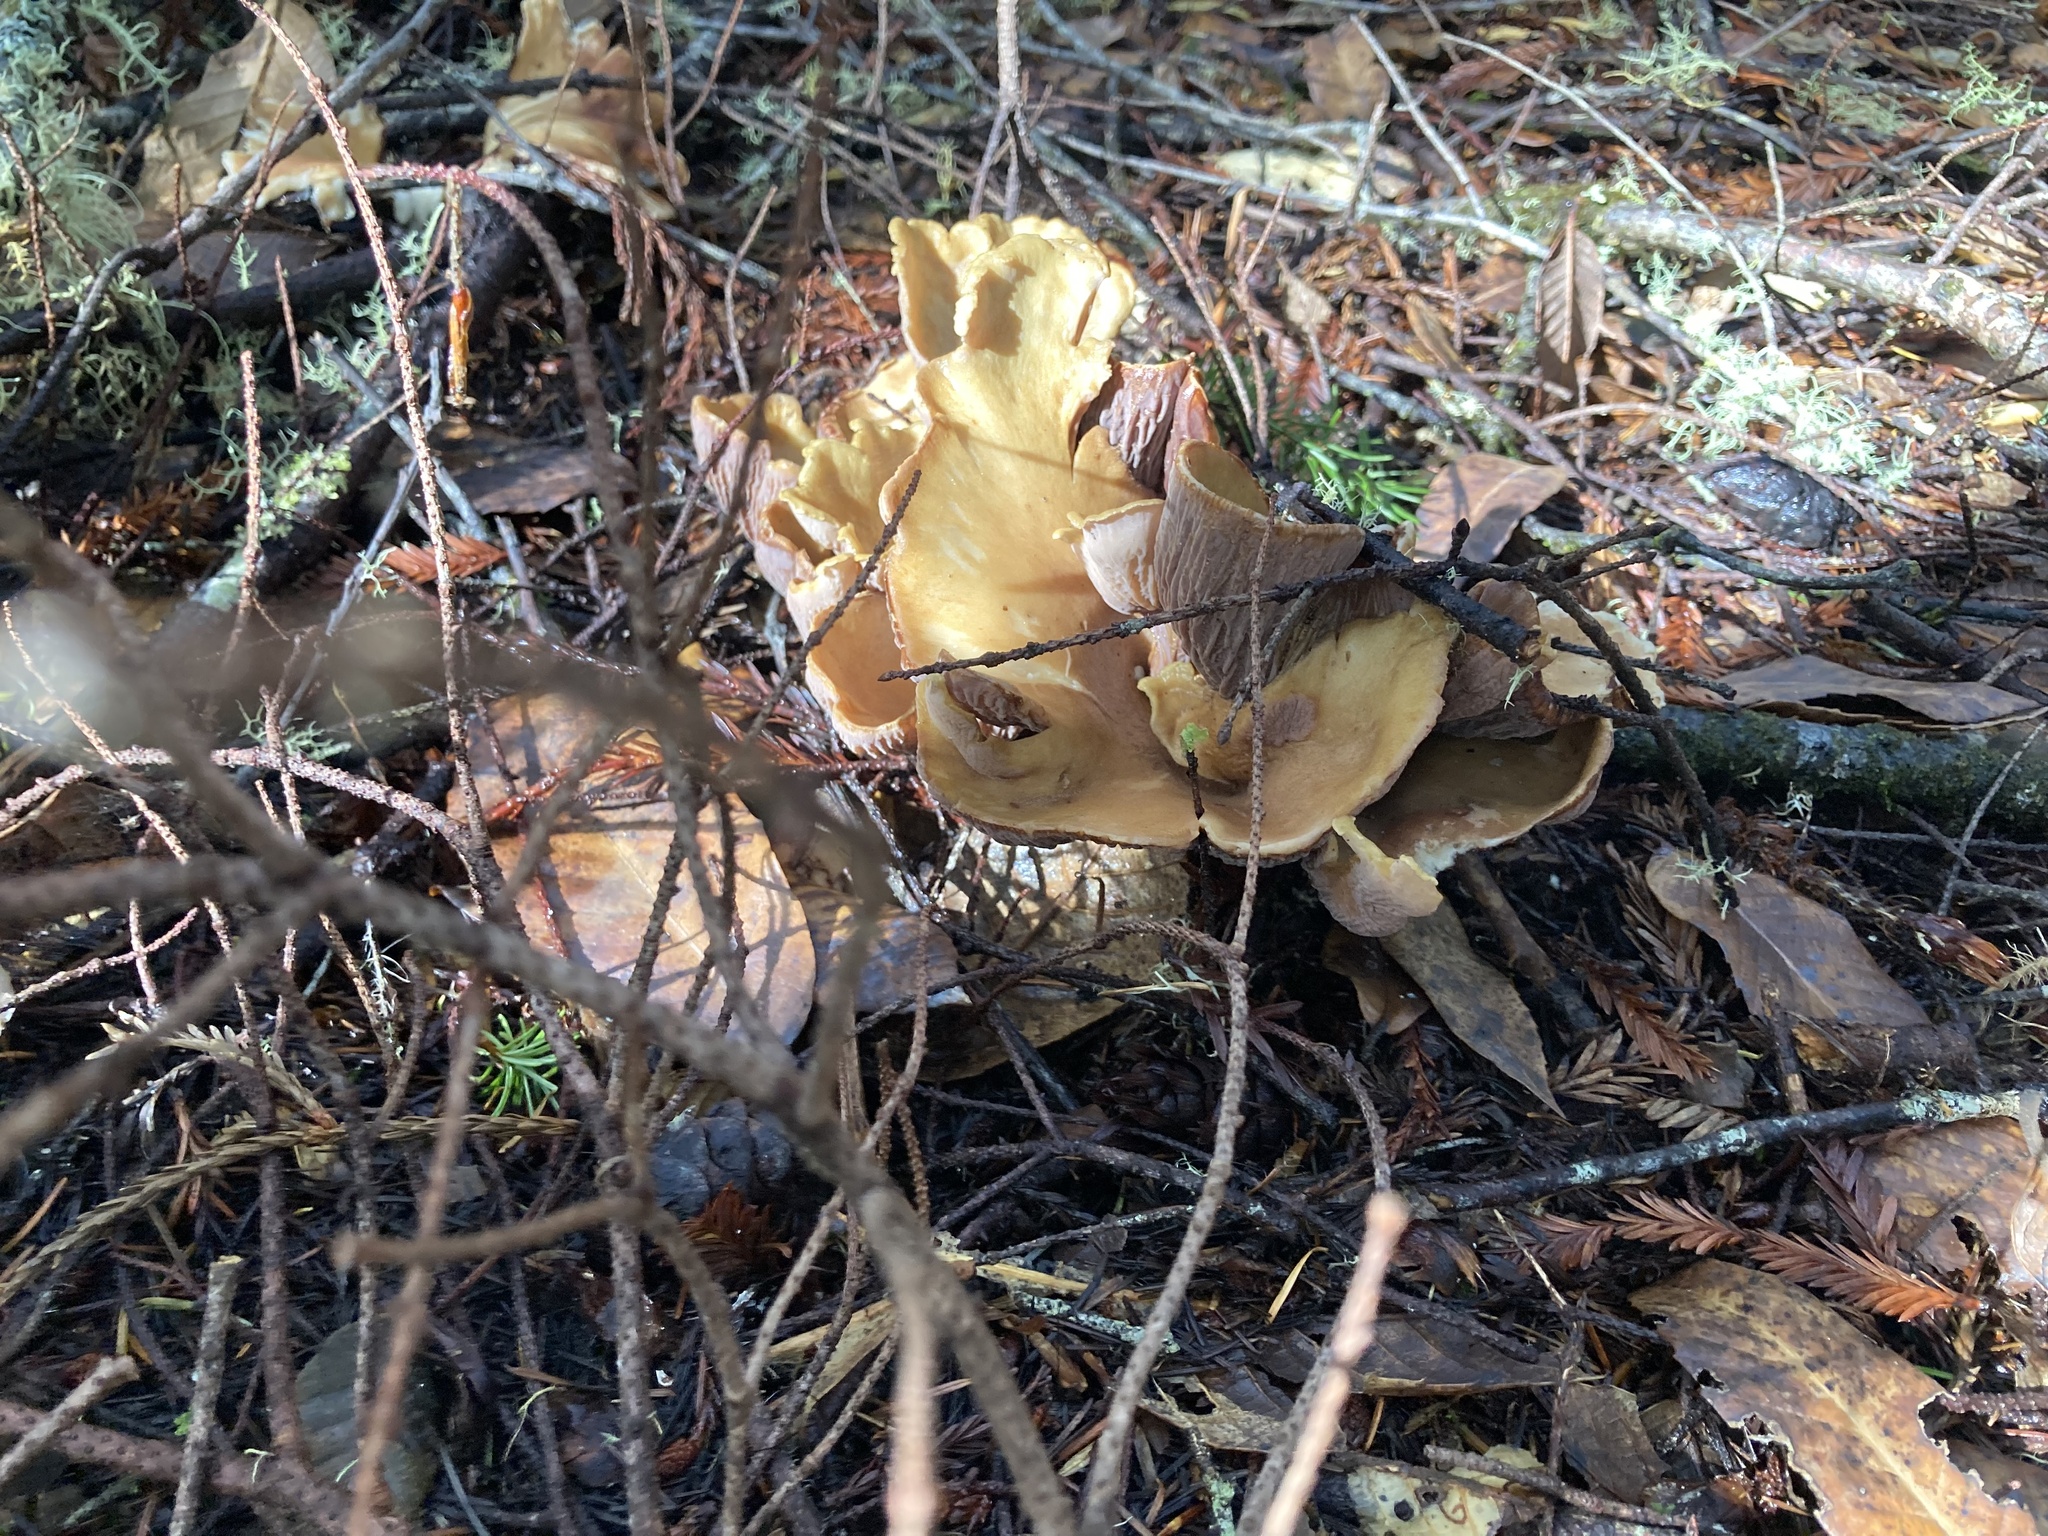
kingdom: Fungi
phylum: Basidiomycota
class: Agaricomycetes
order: Gomphales
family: Gomphaceae
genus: Gomphus
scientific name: Gomphus clavatus
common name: Pig's ear
